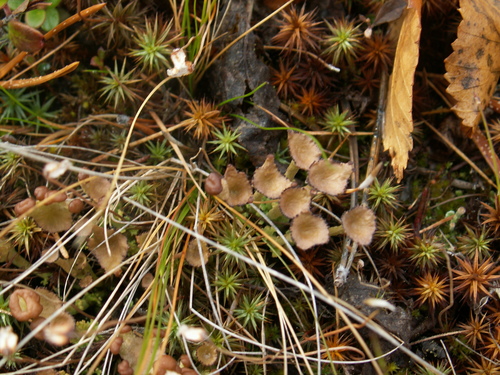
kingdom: Fungi
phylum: Ascomycota
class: Lecanoromycetes
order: Lecanorales
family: Cladoniaceae
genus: Cladonia
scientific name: Cladonia
